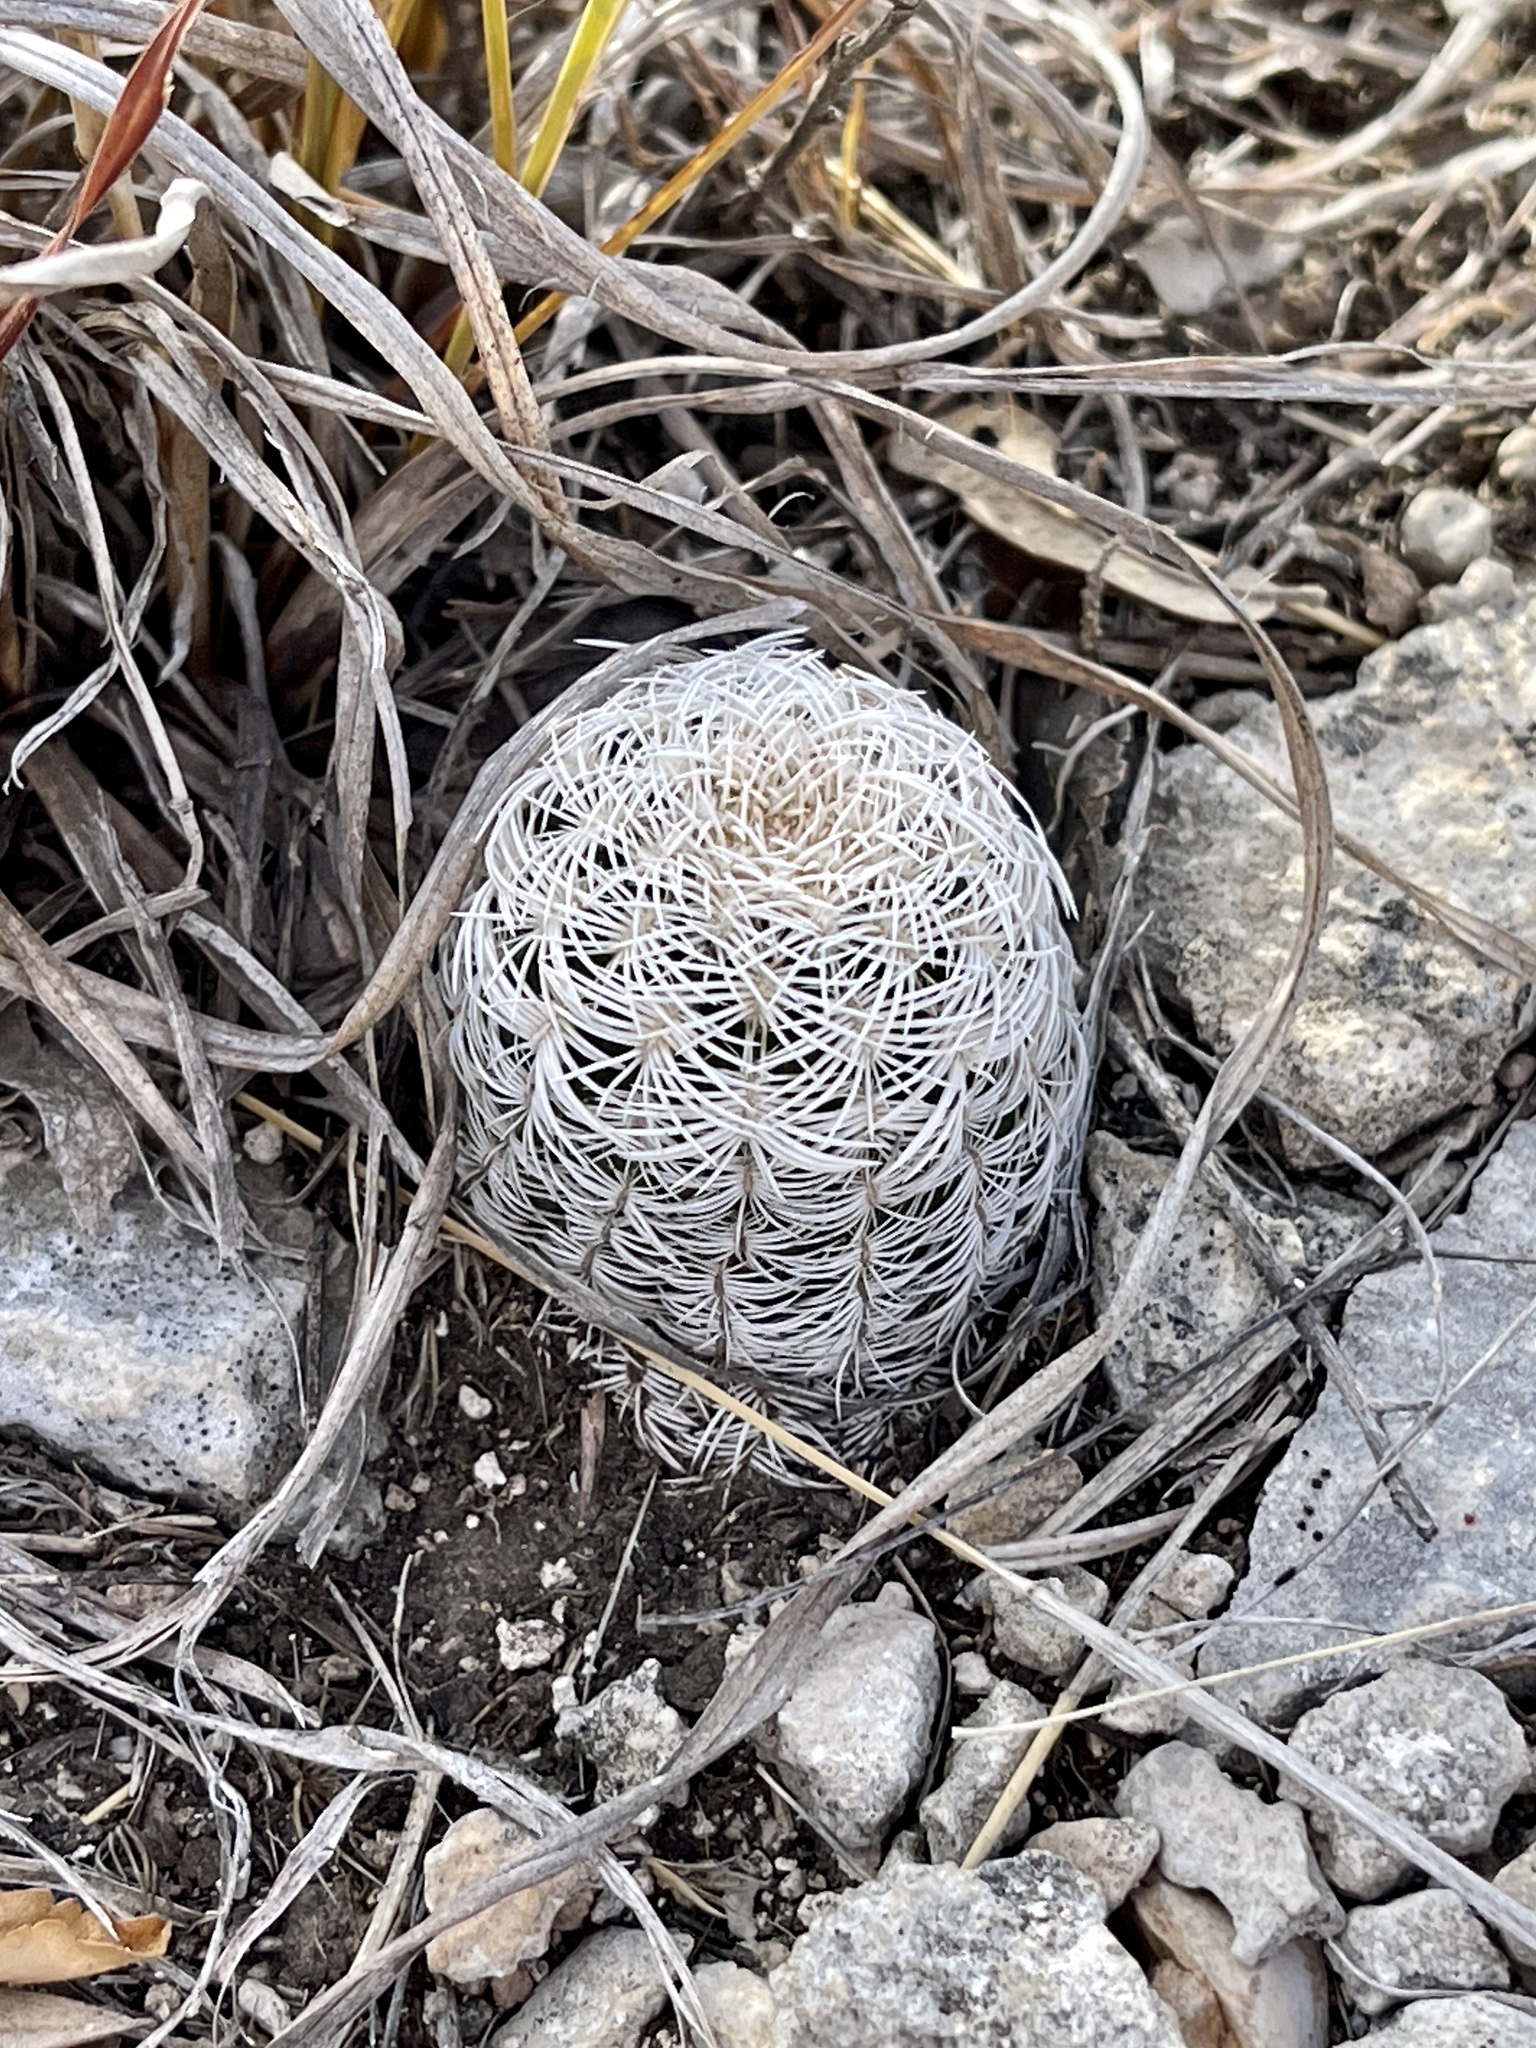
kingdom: Plantae
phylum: Tracheophyta
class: Magnoliopsida
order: Caryophyllales
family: Cactaceae
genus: Echinocereus
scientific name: Echinocereus reichenbachii
